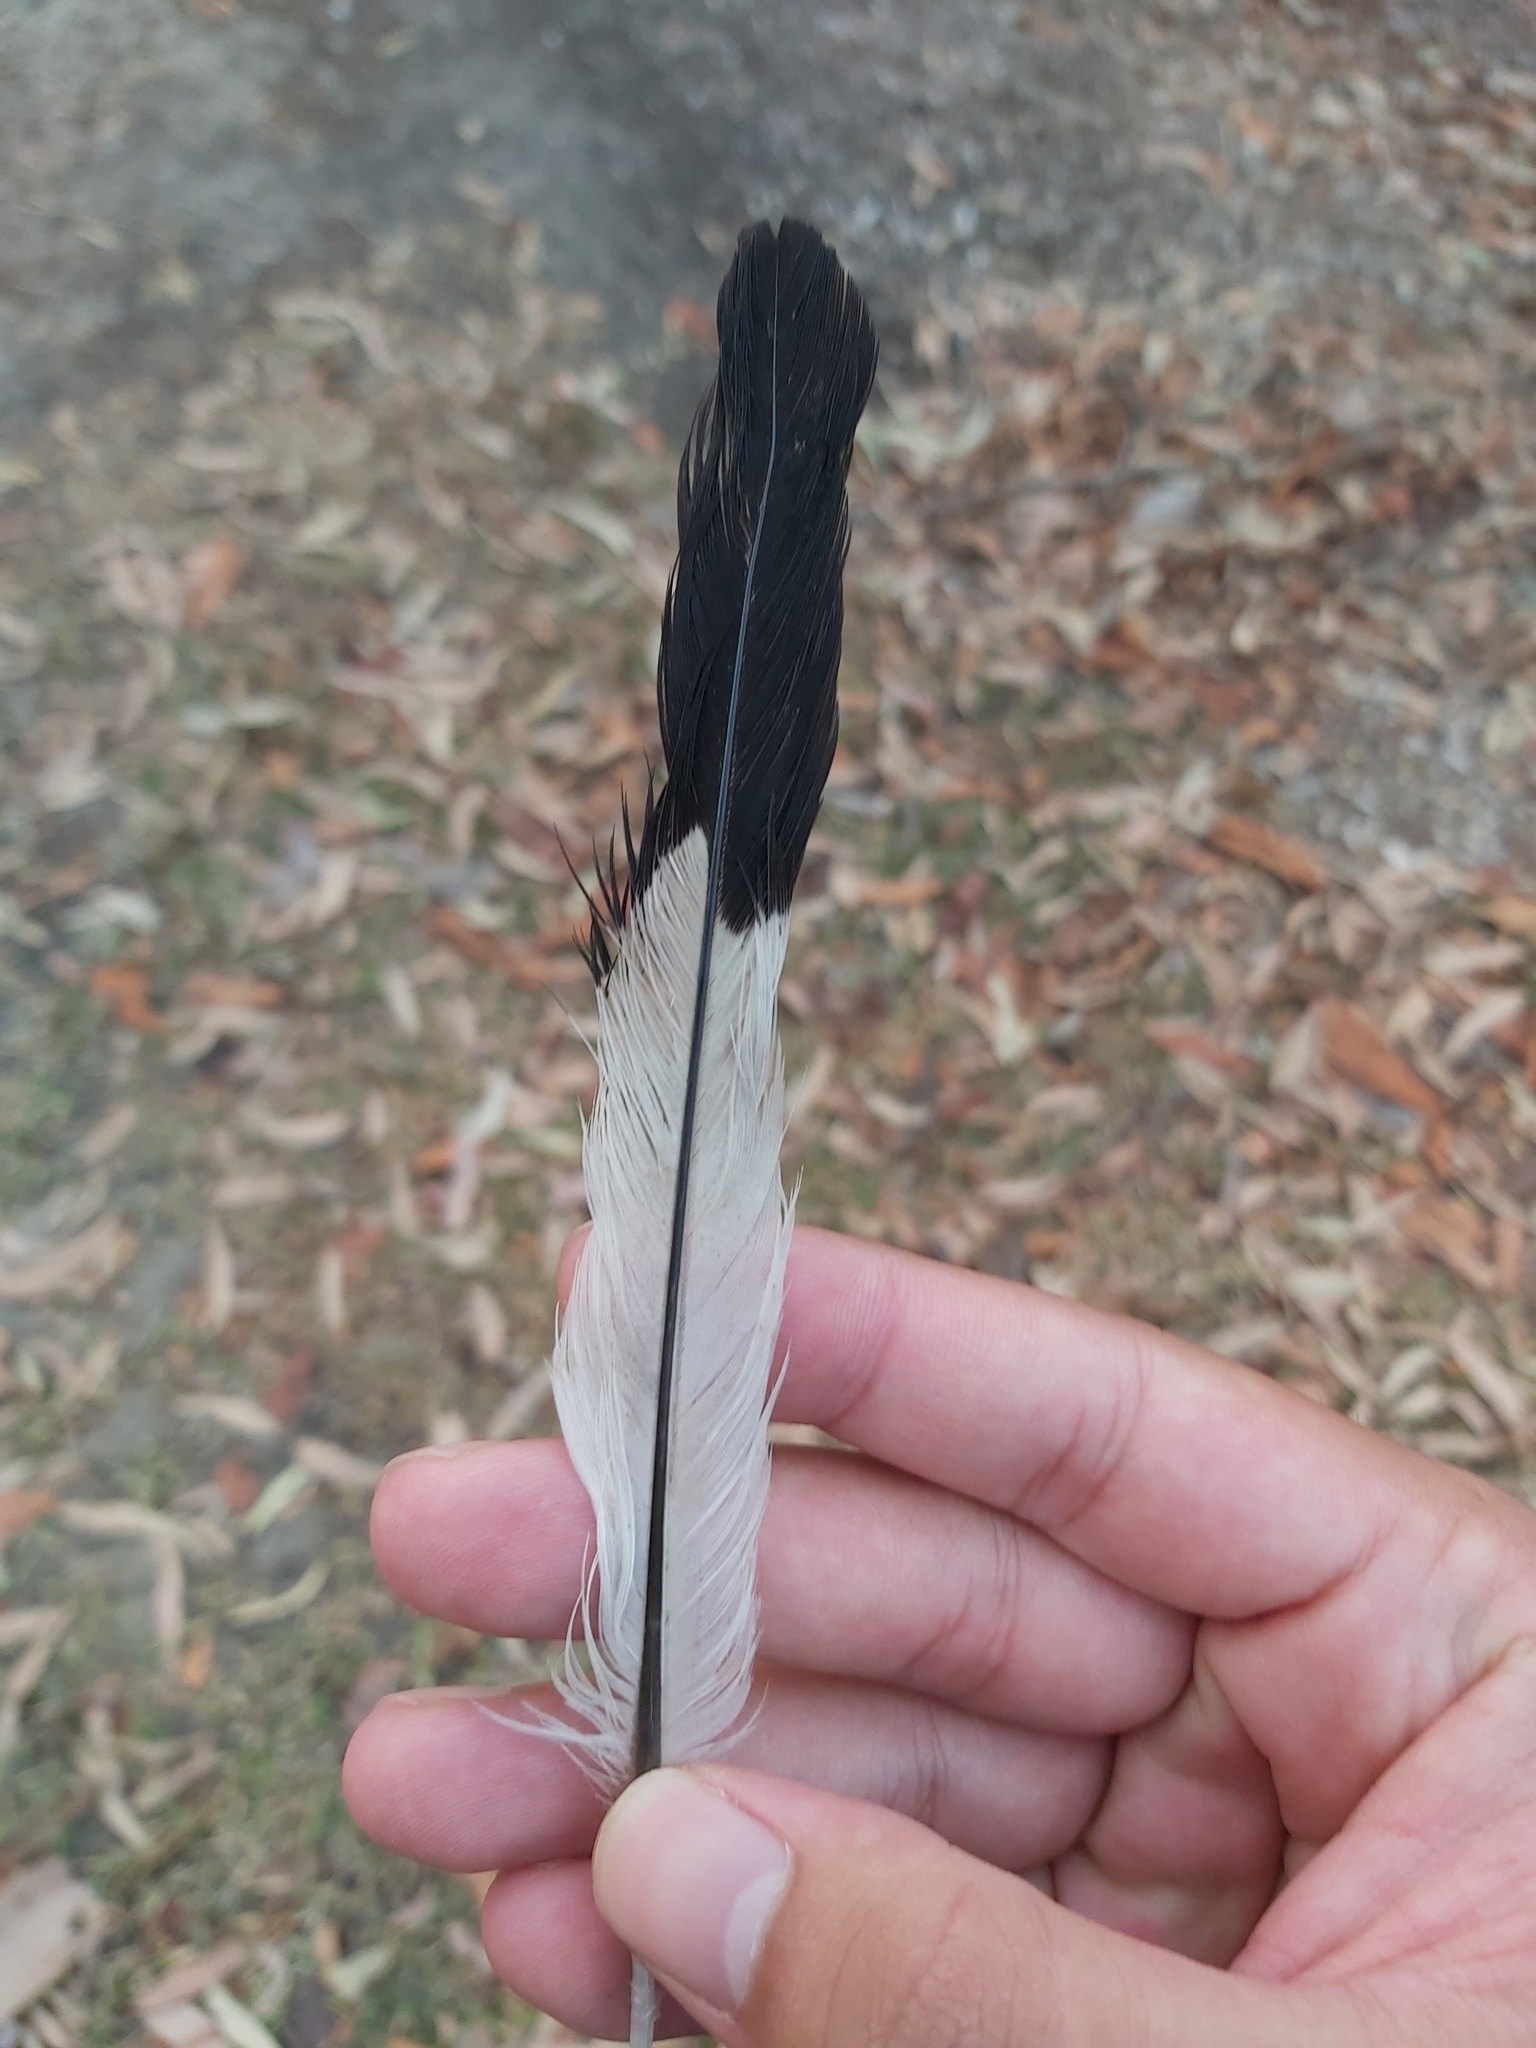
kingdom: Animalia
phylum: Chordata
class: Aves
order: Passeriformes
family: Cracticidae
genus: Gymnorhina
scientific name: Gymnorhina tibicen
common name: Australian magpie
